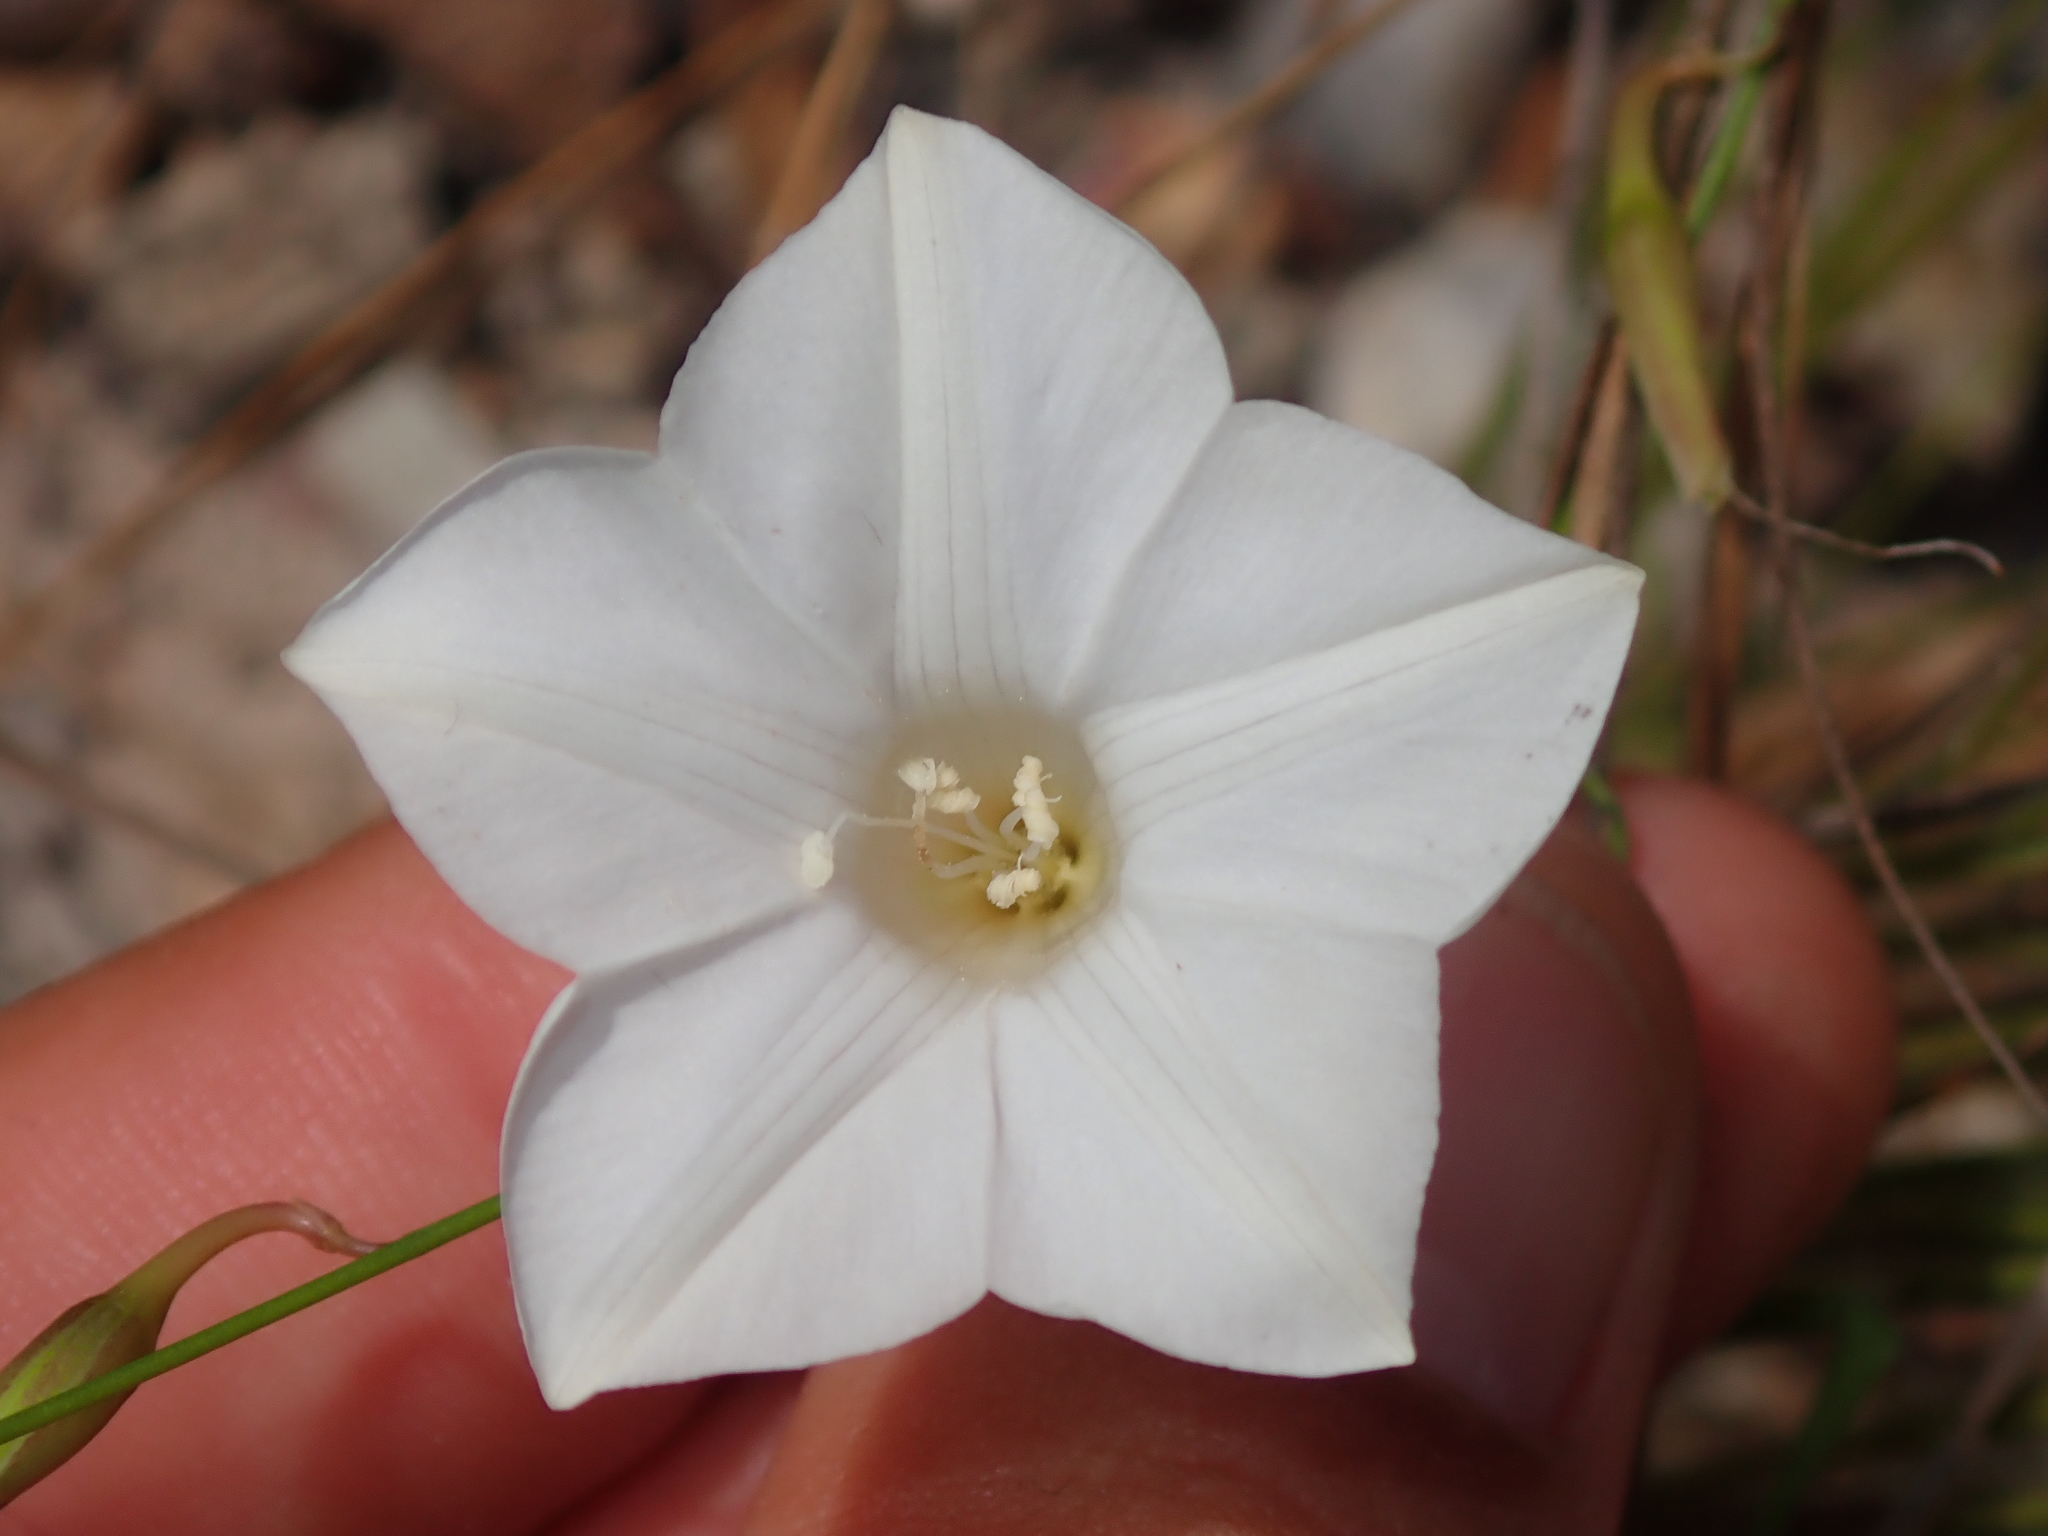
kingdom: Plantae
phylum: Tracheophyta
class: Magnoliopsida
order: Solanales
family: Convolvulaceae
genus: Distimake
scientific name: Distimake aturensis
